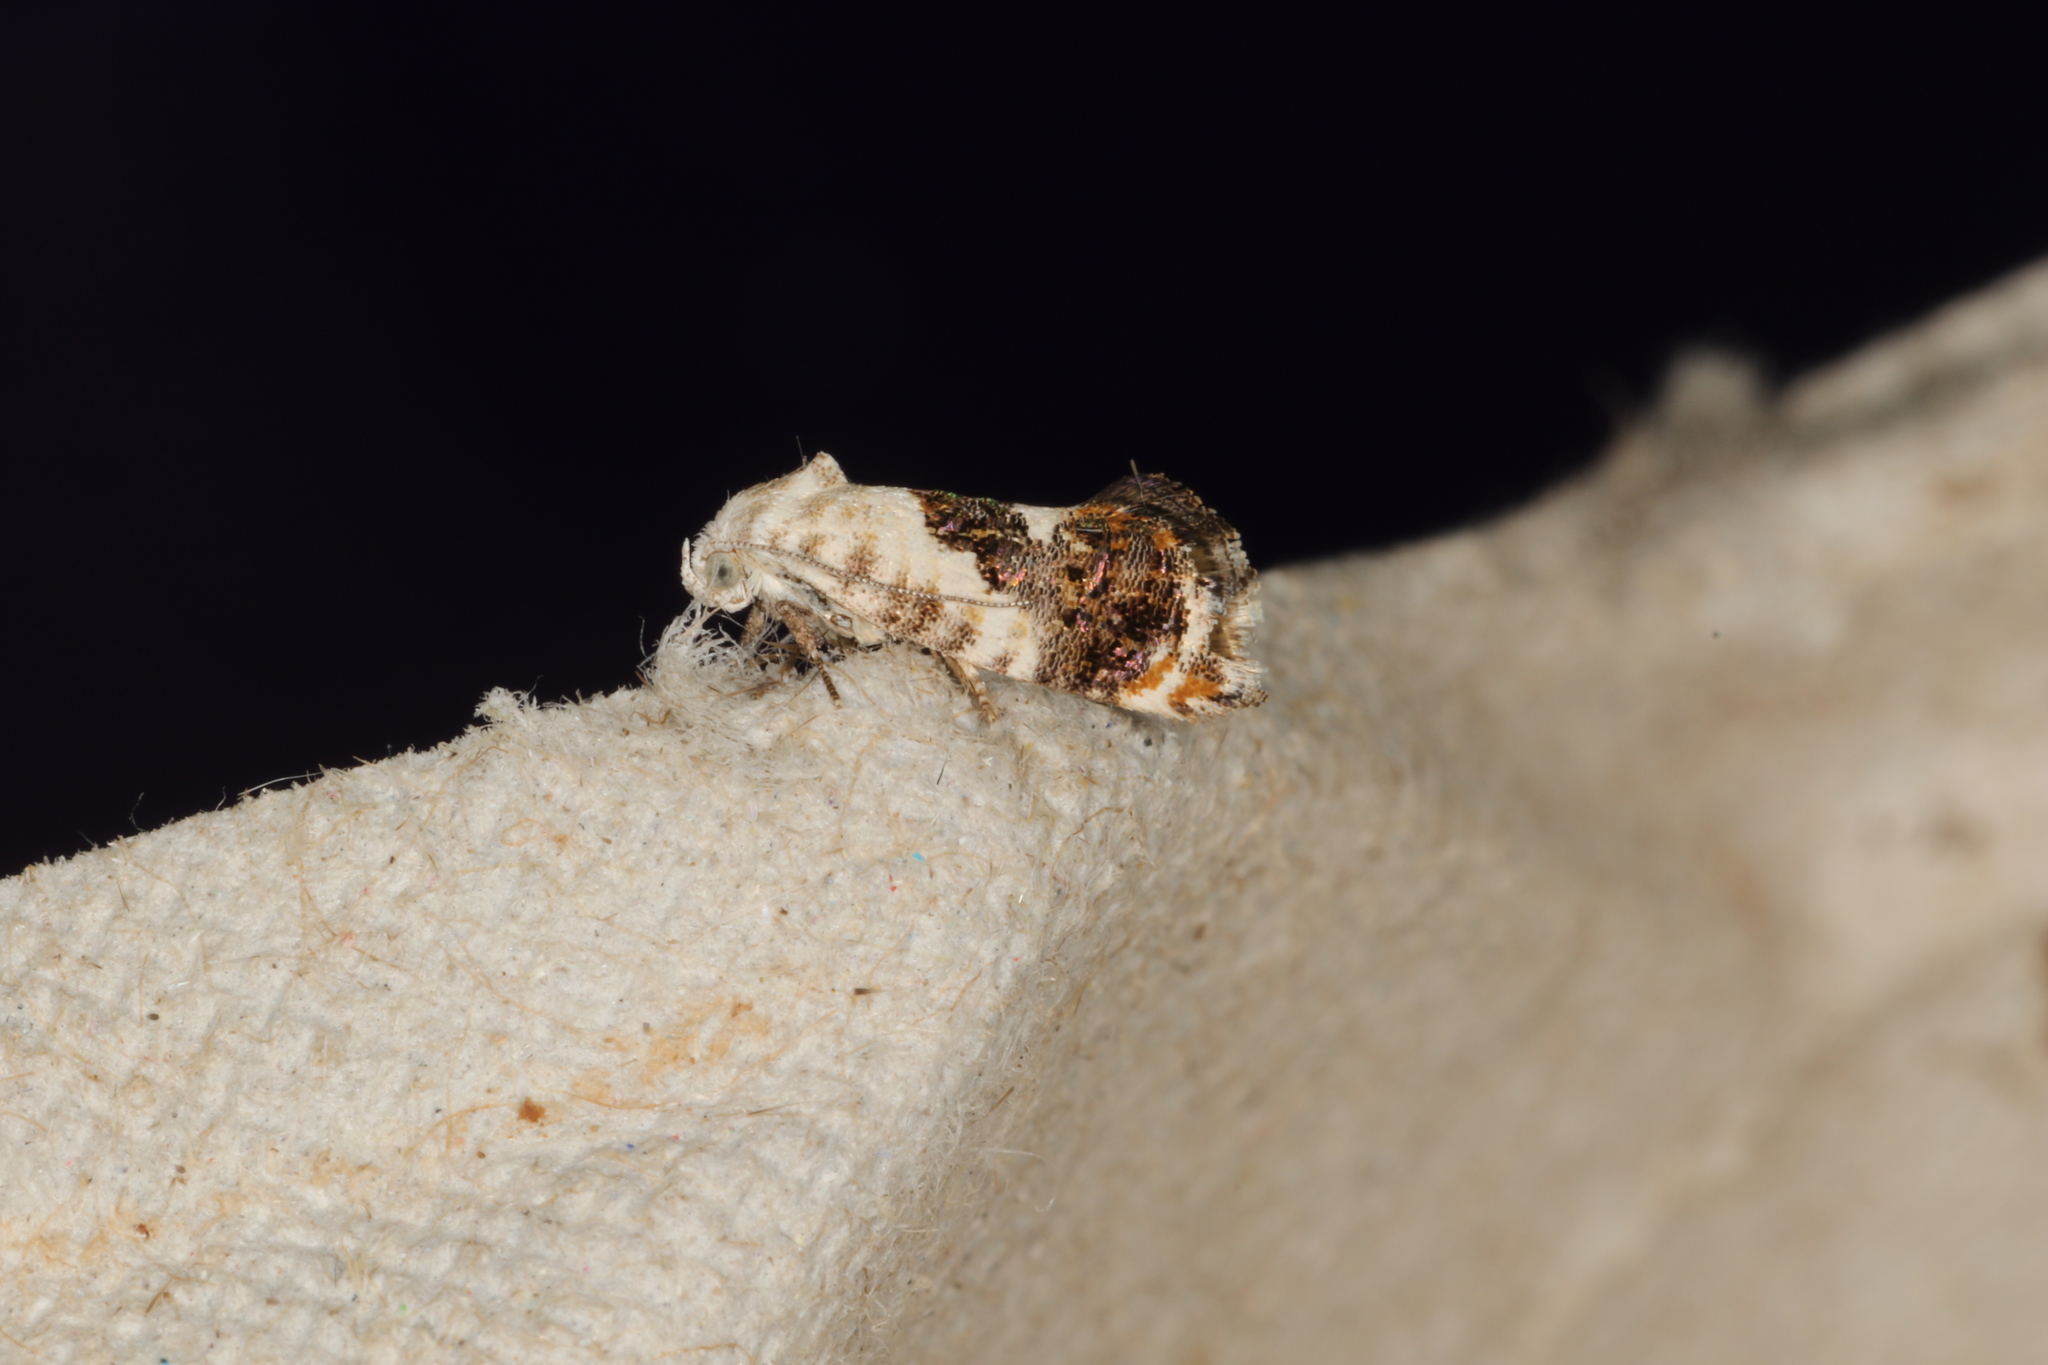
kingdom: Animalia
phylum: Arthropoda
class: Insecta
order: Lepidoptera
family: Depressariidae
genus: Progonica
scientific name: Progonica rhothias
